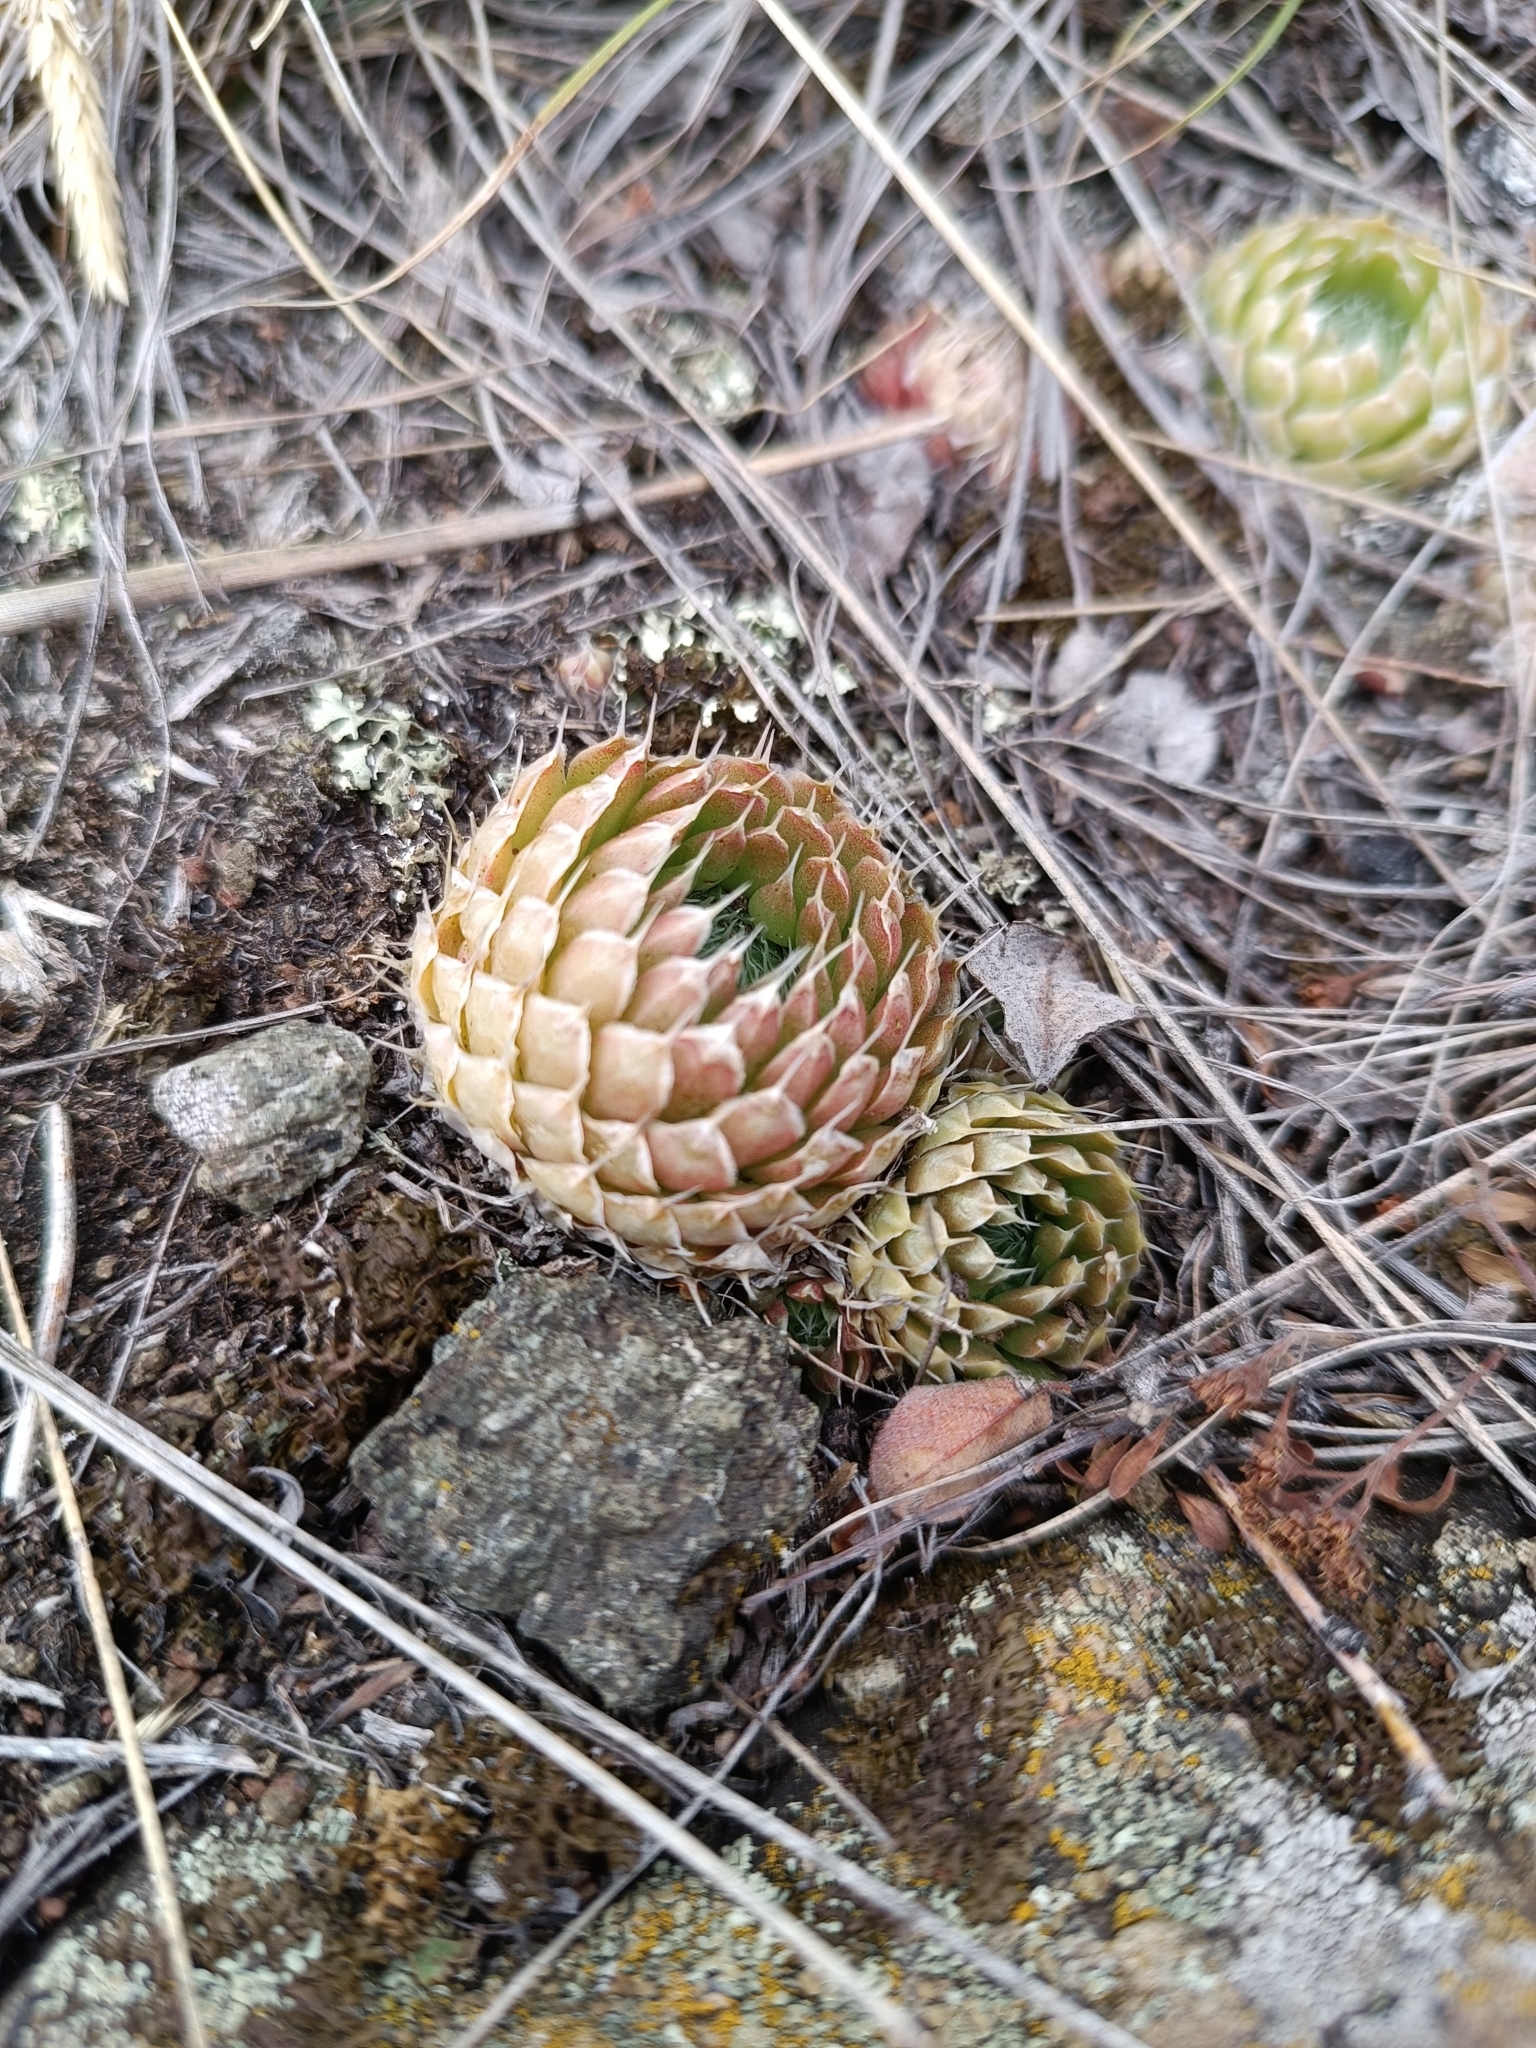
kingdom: Plantae
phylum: Tracheophyta
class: Magnoliopsida
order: Saxifragales
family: Crassulaceae
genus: Orostachys
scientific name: Orostachys spinosa
